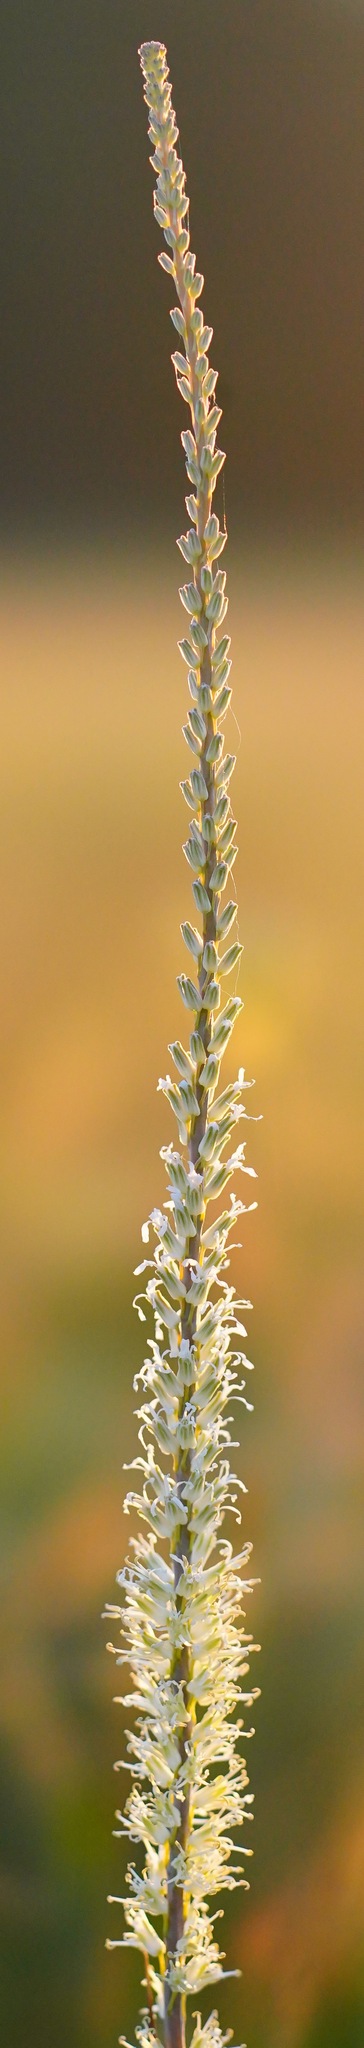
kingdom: Plantae
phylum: Tracheophyta
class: Magnoliopsida
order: Brassicales
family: Brassicaceae
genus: Thelypodium
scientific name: Thelypodium crispum
